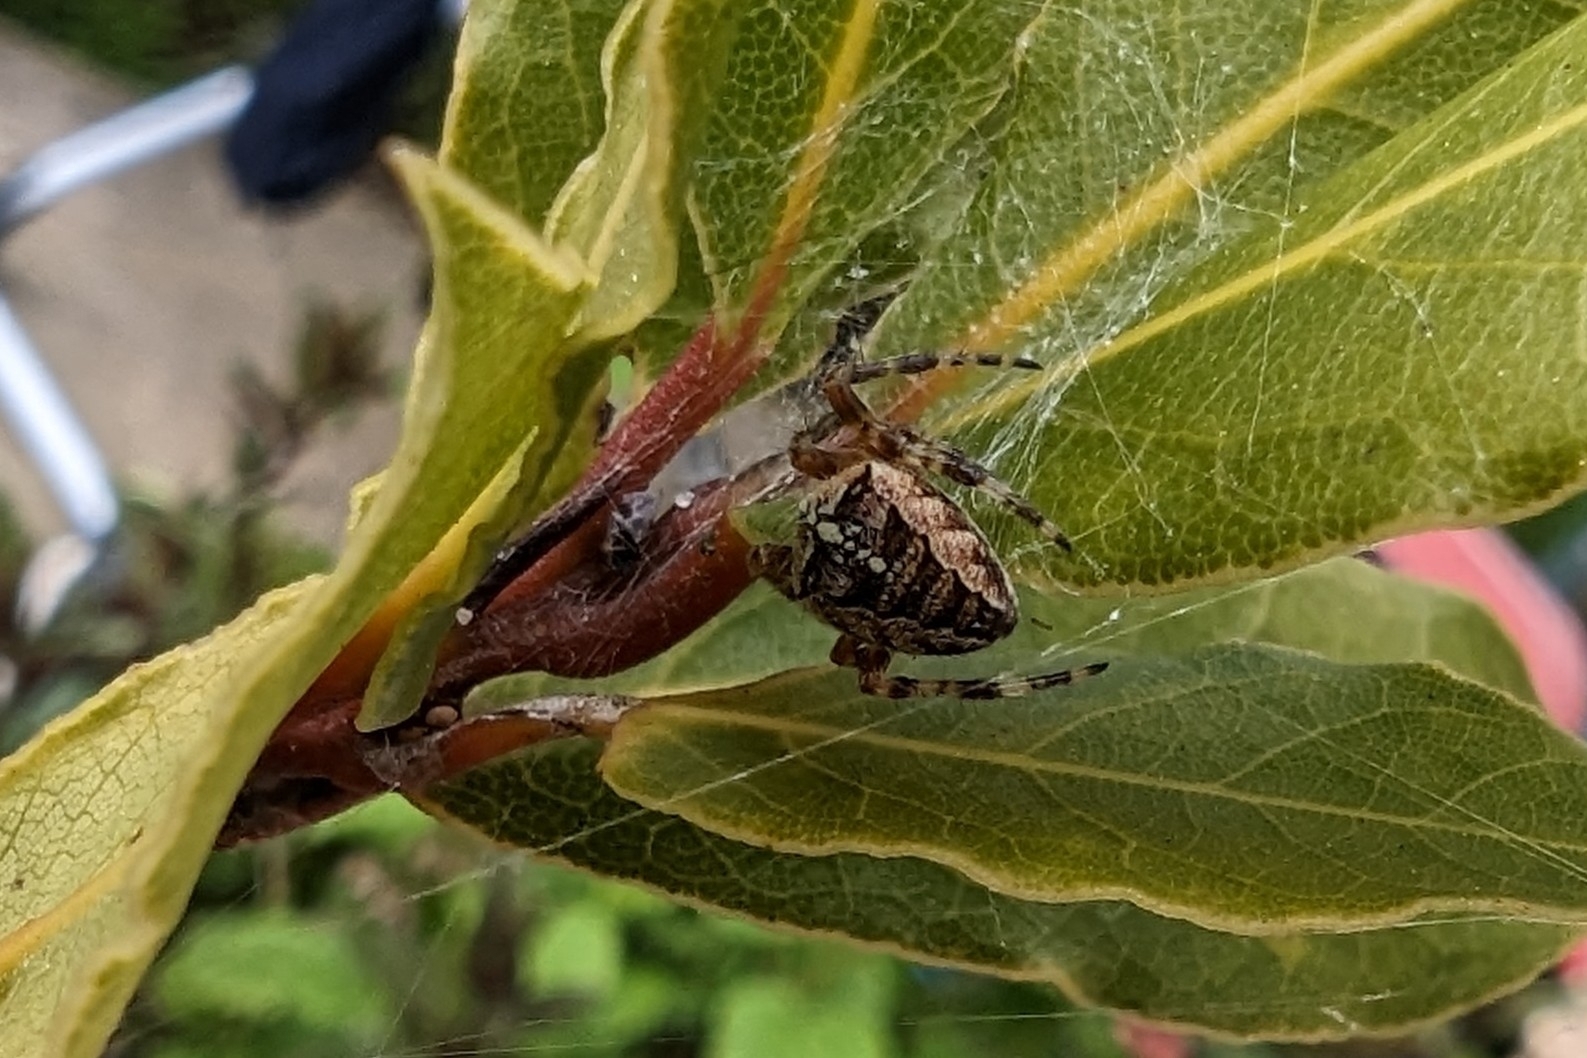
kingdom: Animalia
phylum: Arthropoda
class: Arachnida
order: Araneae
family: Araneidae
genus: Araneus
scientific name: Araneus diadematus
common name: Cross orbweaver
